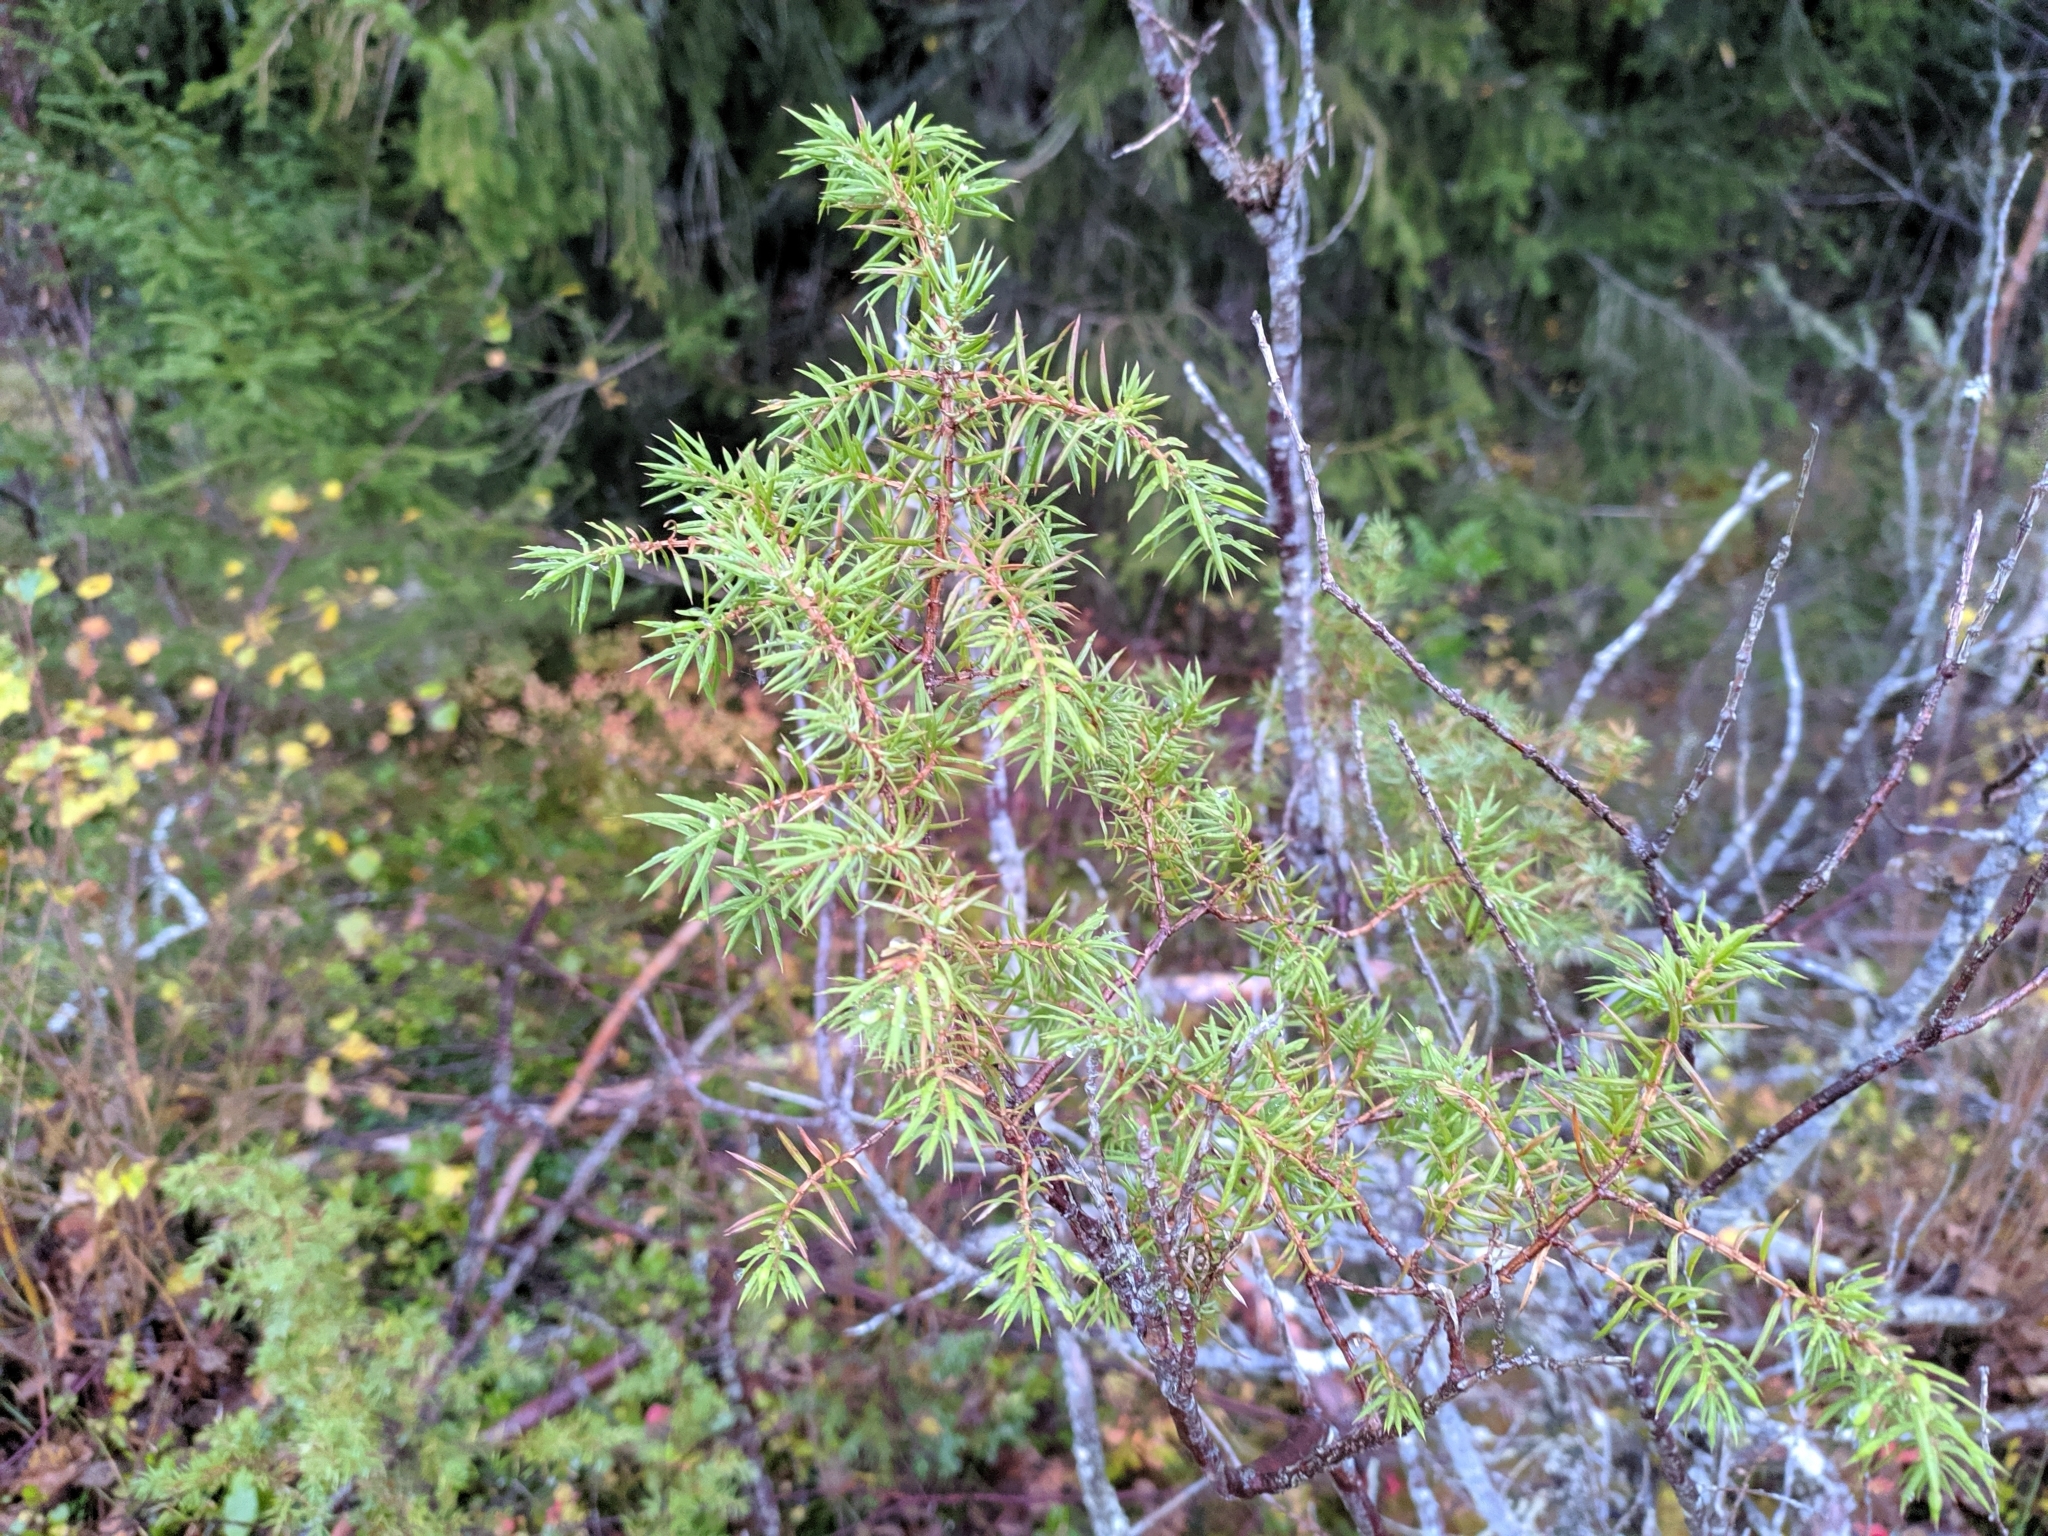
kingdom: Plantae
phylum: Tracheophyta
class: Pinopsida
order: Pinales
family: Cupressaceae
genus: Juniperus
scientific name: Juniperus communis
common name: Common juniper
